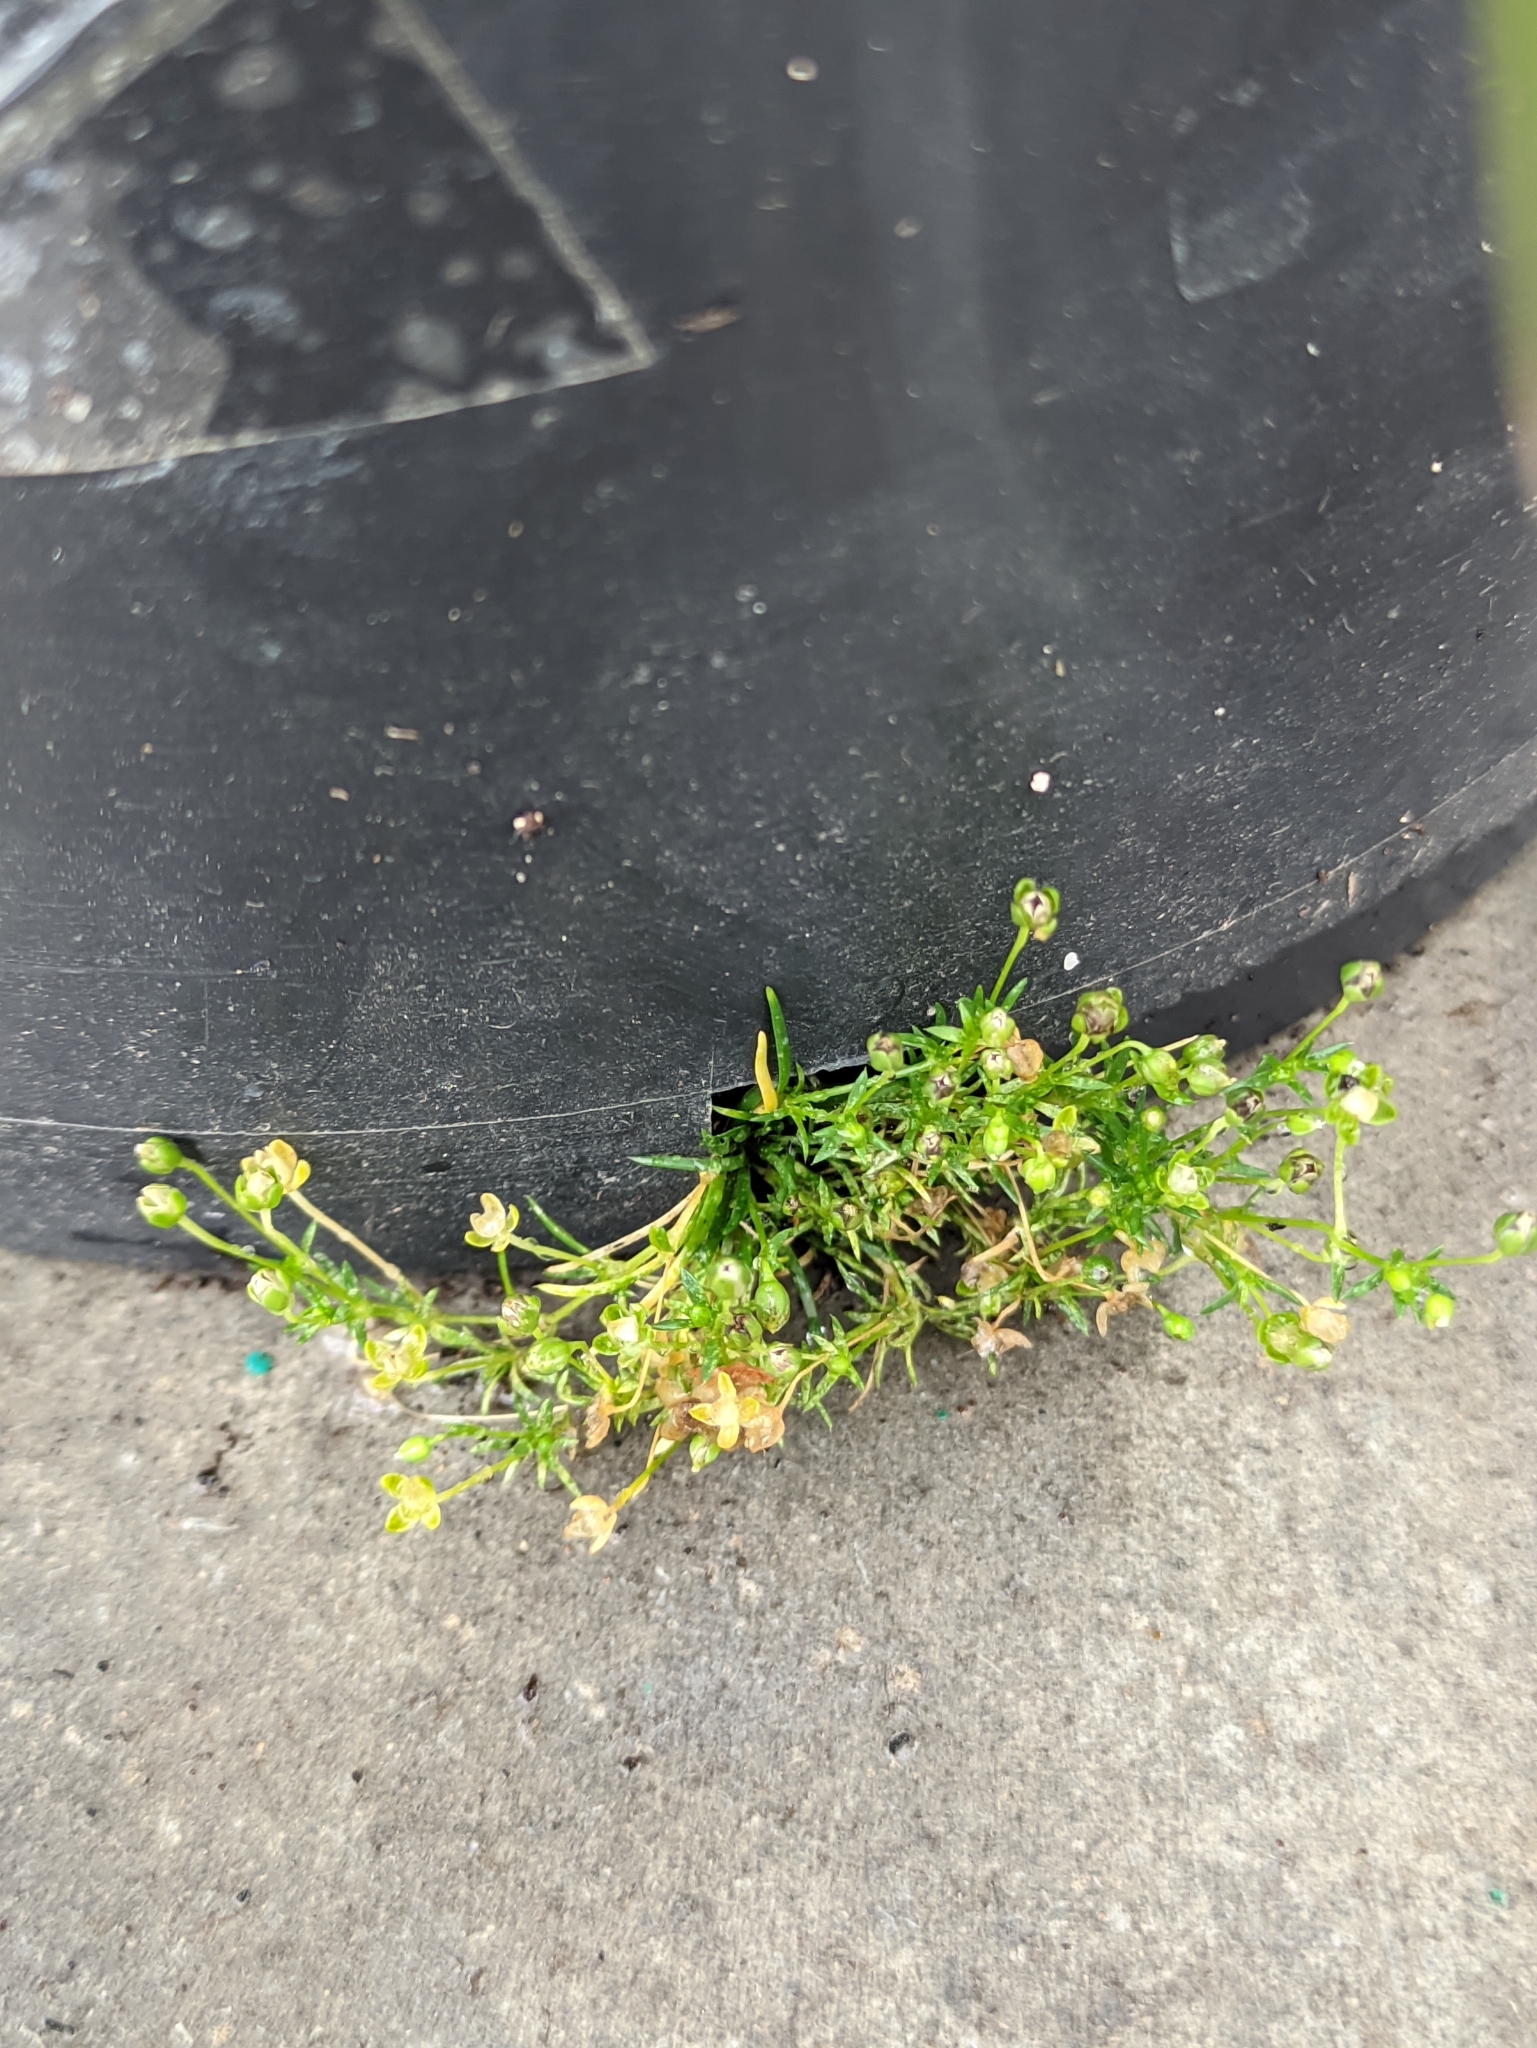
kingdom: Plantae
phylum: Tracheophyta
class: Magnoliopsida
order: Caryophyllales
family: Caryophyllaceae
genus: Sagina
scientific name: Sagina procumbens
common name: Procumbent pearlwort
